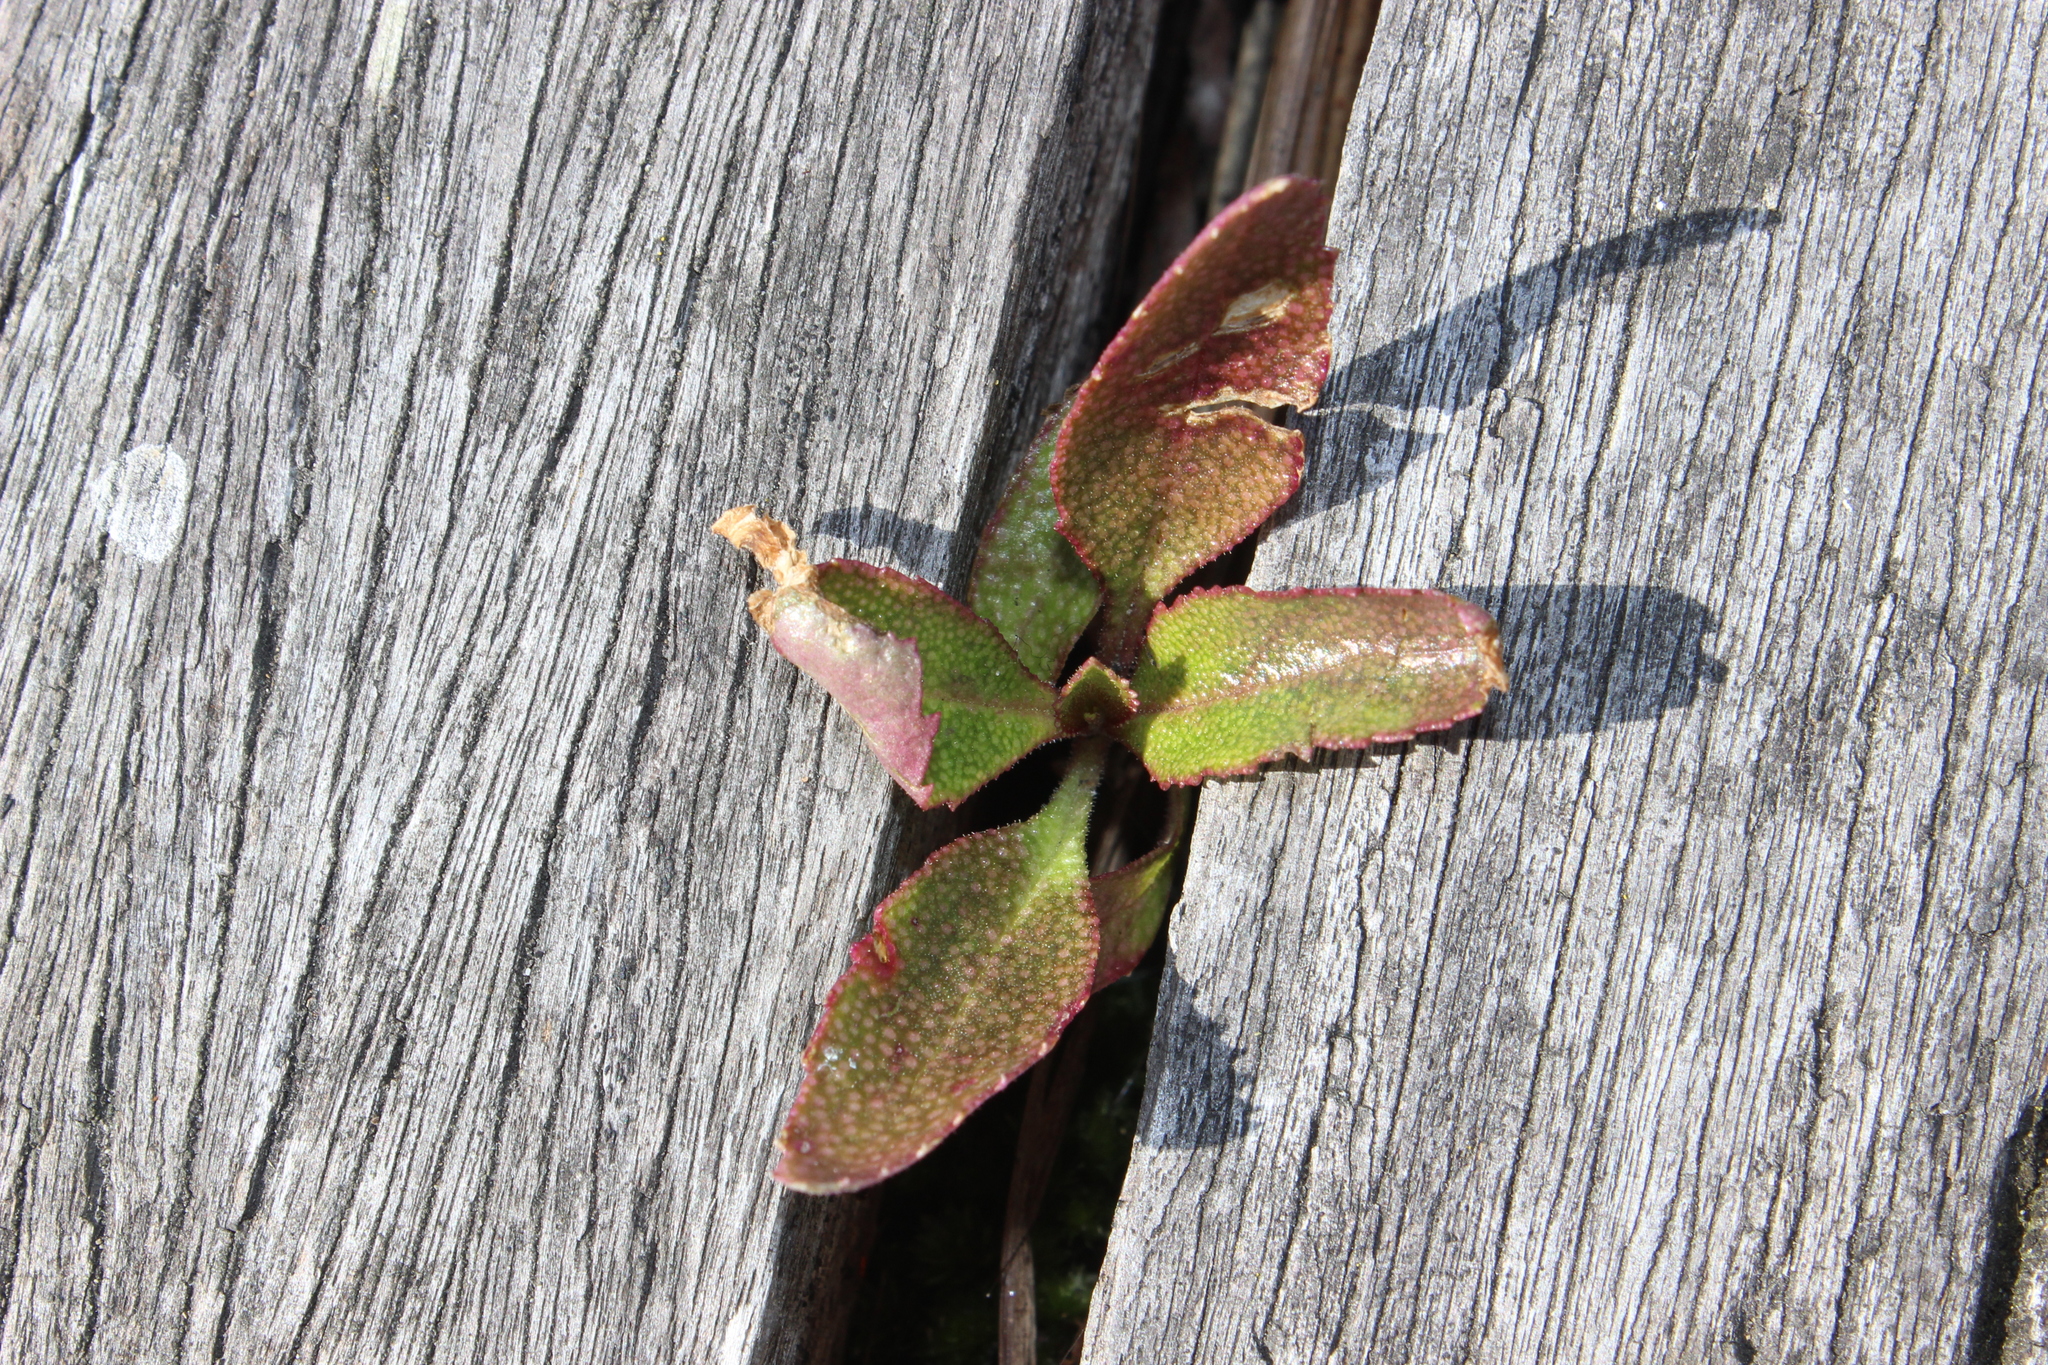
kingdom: Plantae
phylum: Tracheophyta
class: Magnoliopsida
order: Lamiales
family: Scrophulariaceae
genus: Myoporum
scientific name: Myoporum laetum
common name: Ngaio tree
